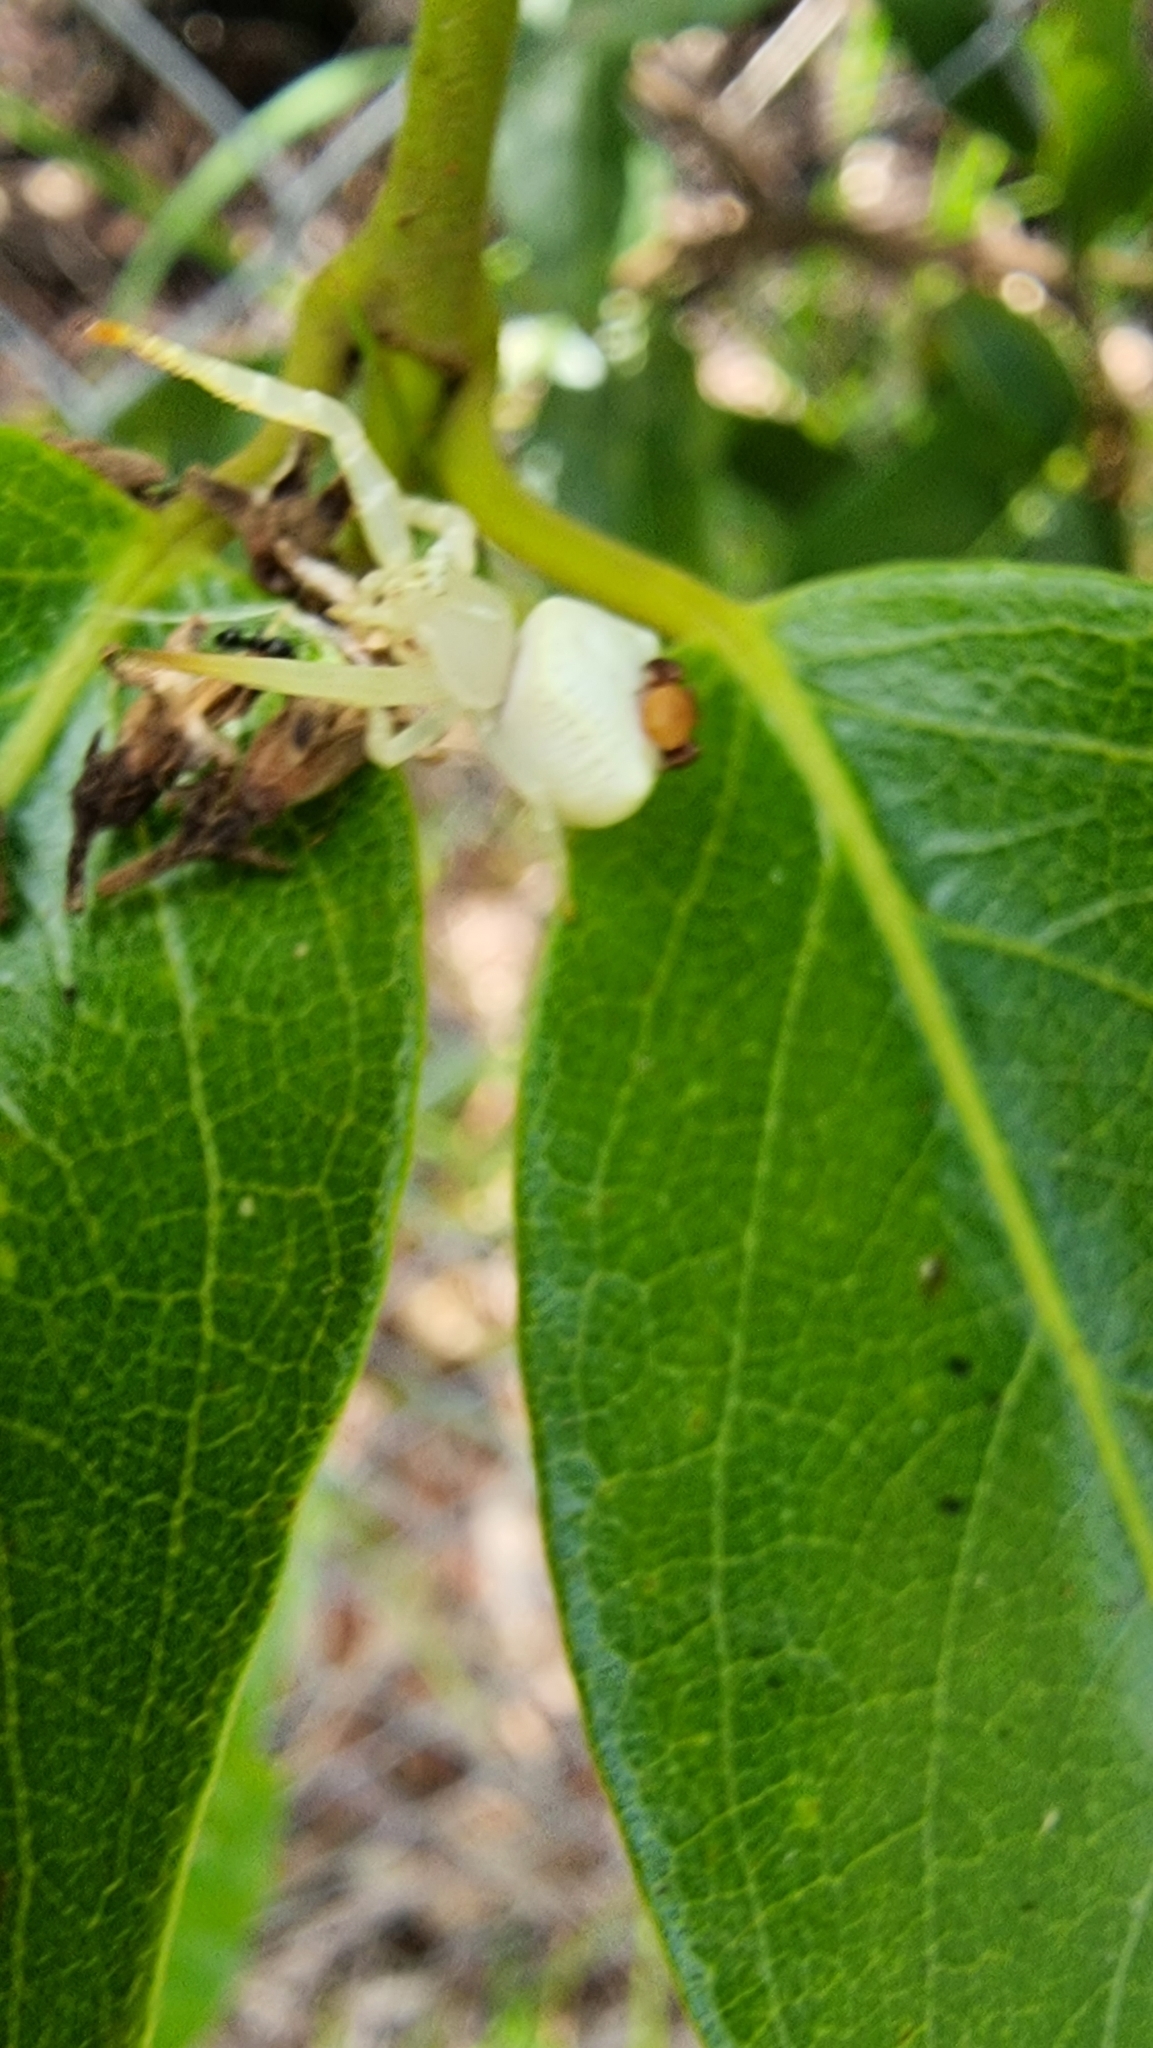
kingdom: Animalia
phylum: Arthropoda
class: Arachnida
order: Araneae
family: Thomisidae
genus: Thomisus
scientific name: Thomisus spectabilis
